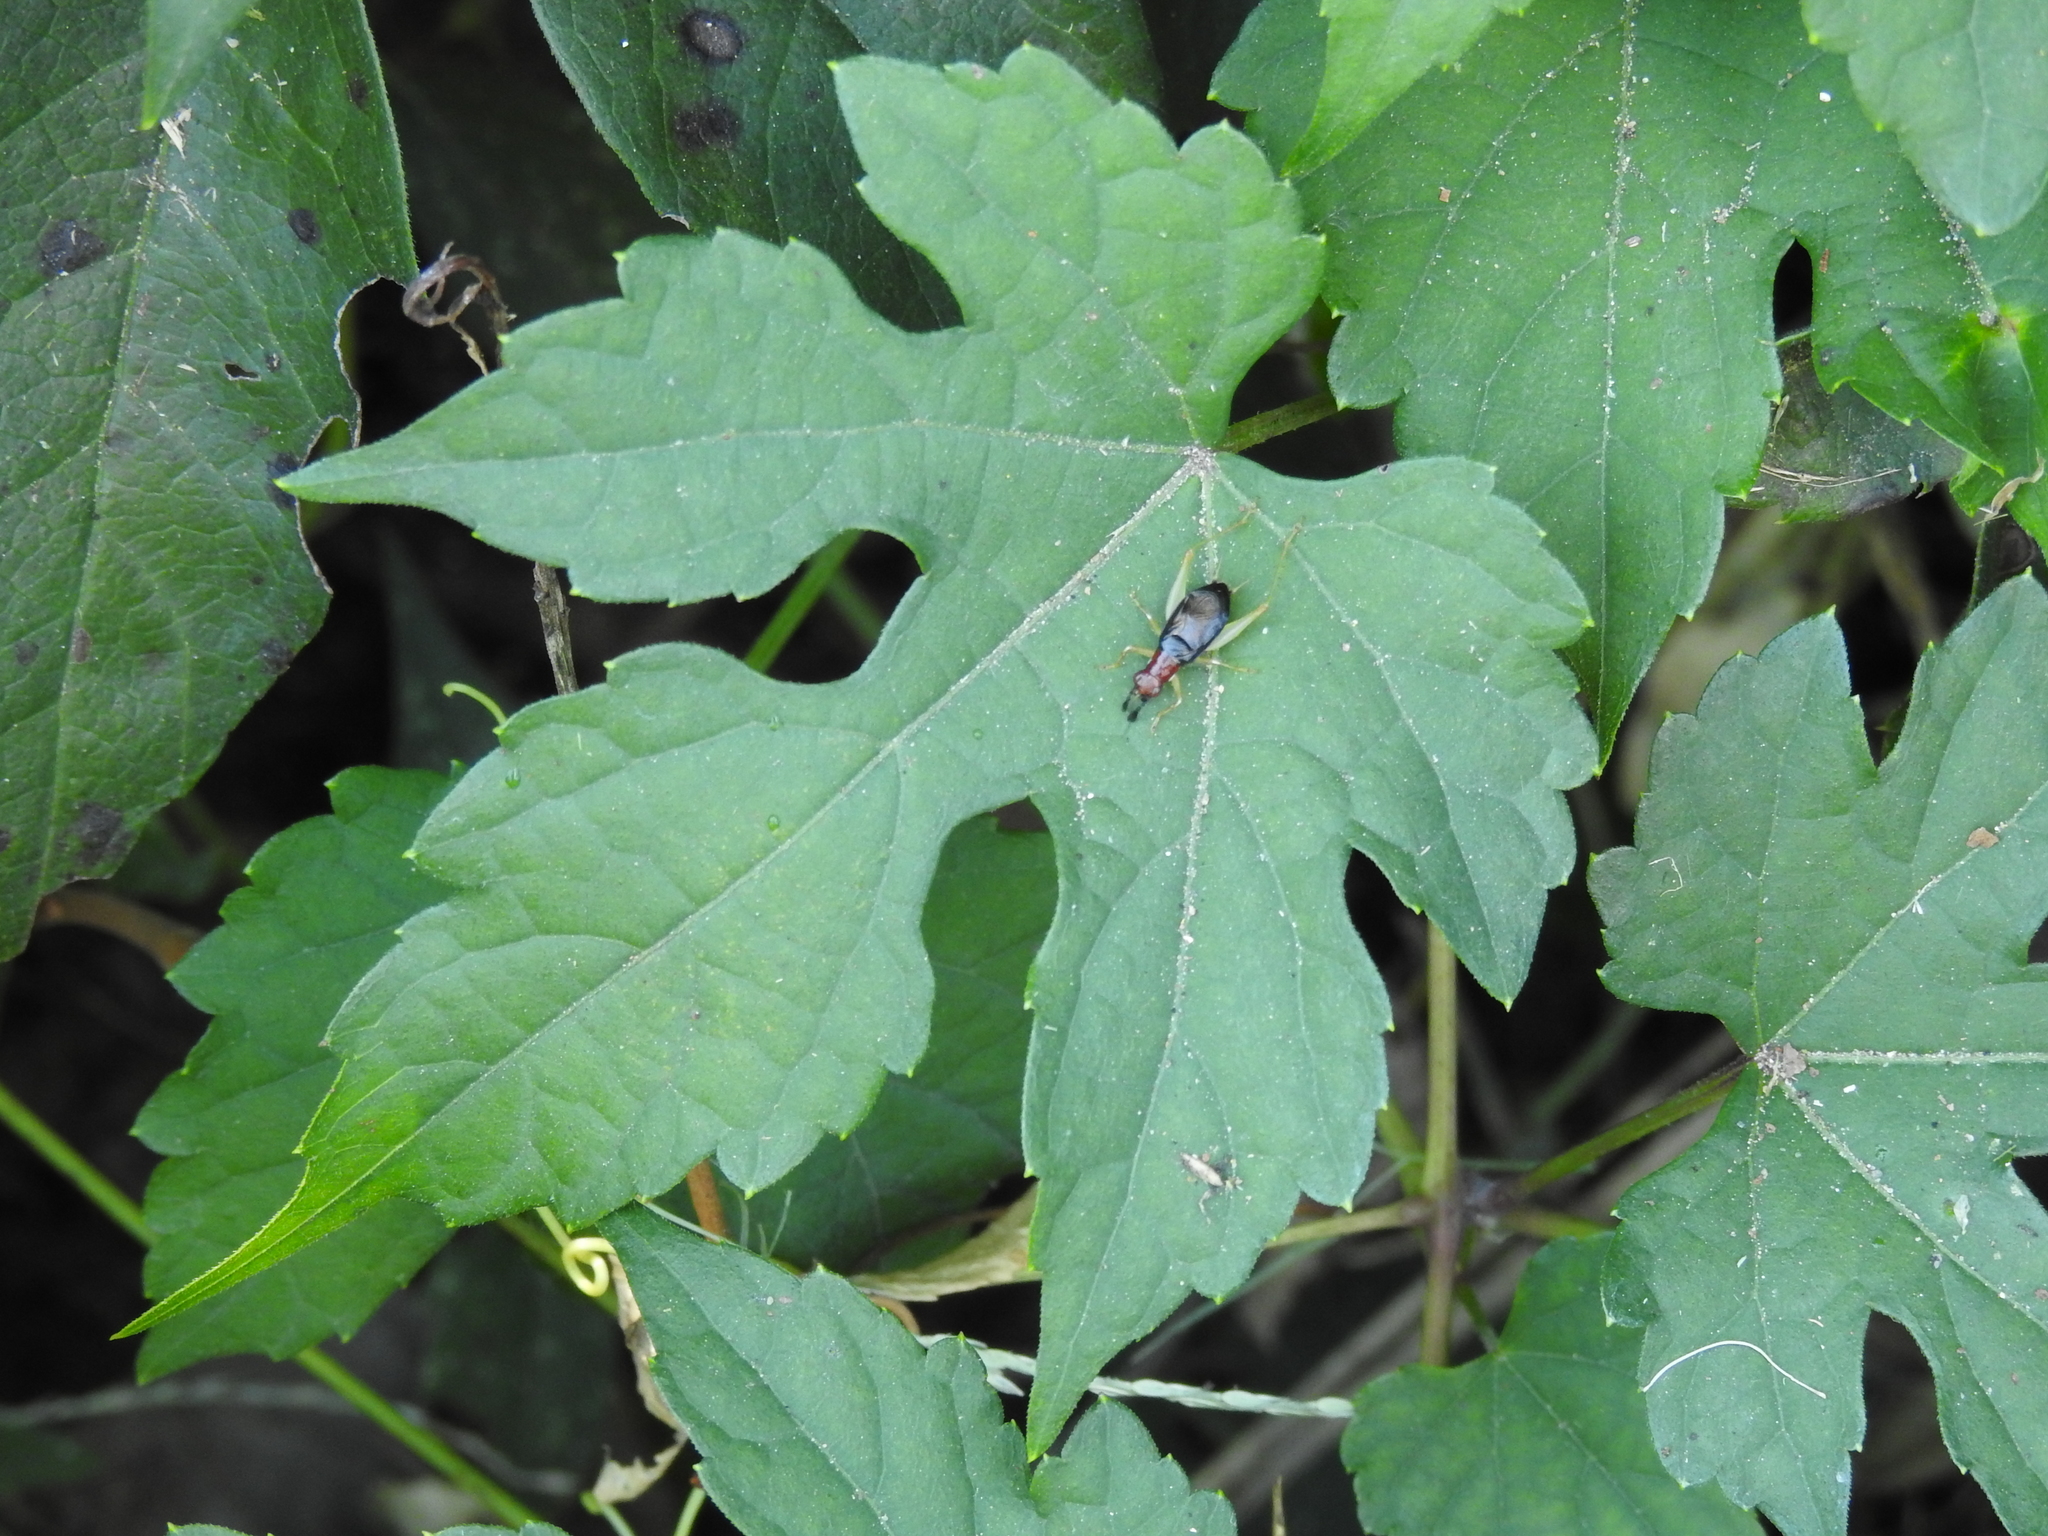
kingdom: Animalia
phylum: Arthropoda
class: Insecta
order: Orthoptera
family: Trigonidiidae
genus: Phyllopalpus
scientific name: Phyllopalpus pulchellus
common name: Handsome trig
